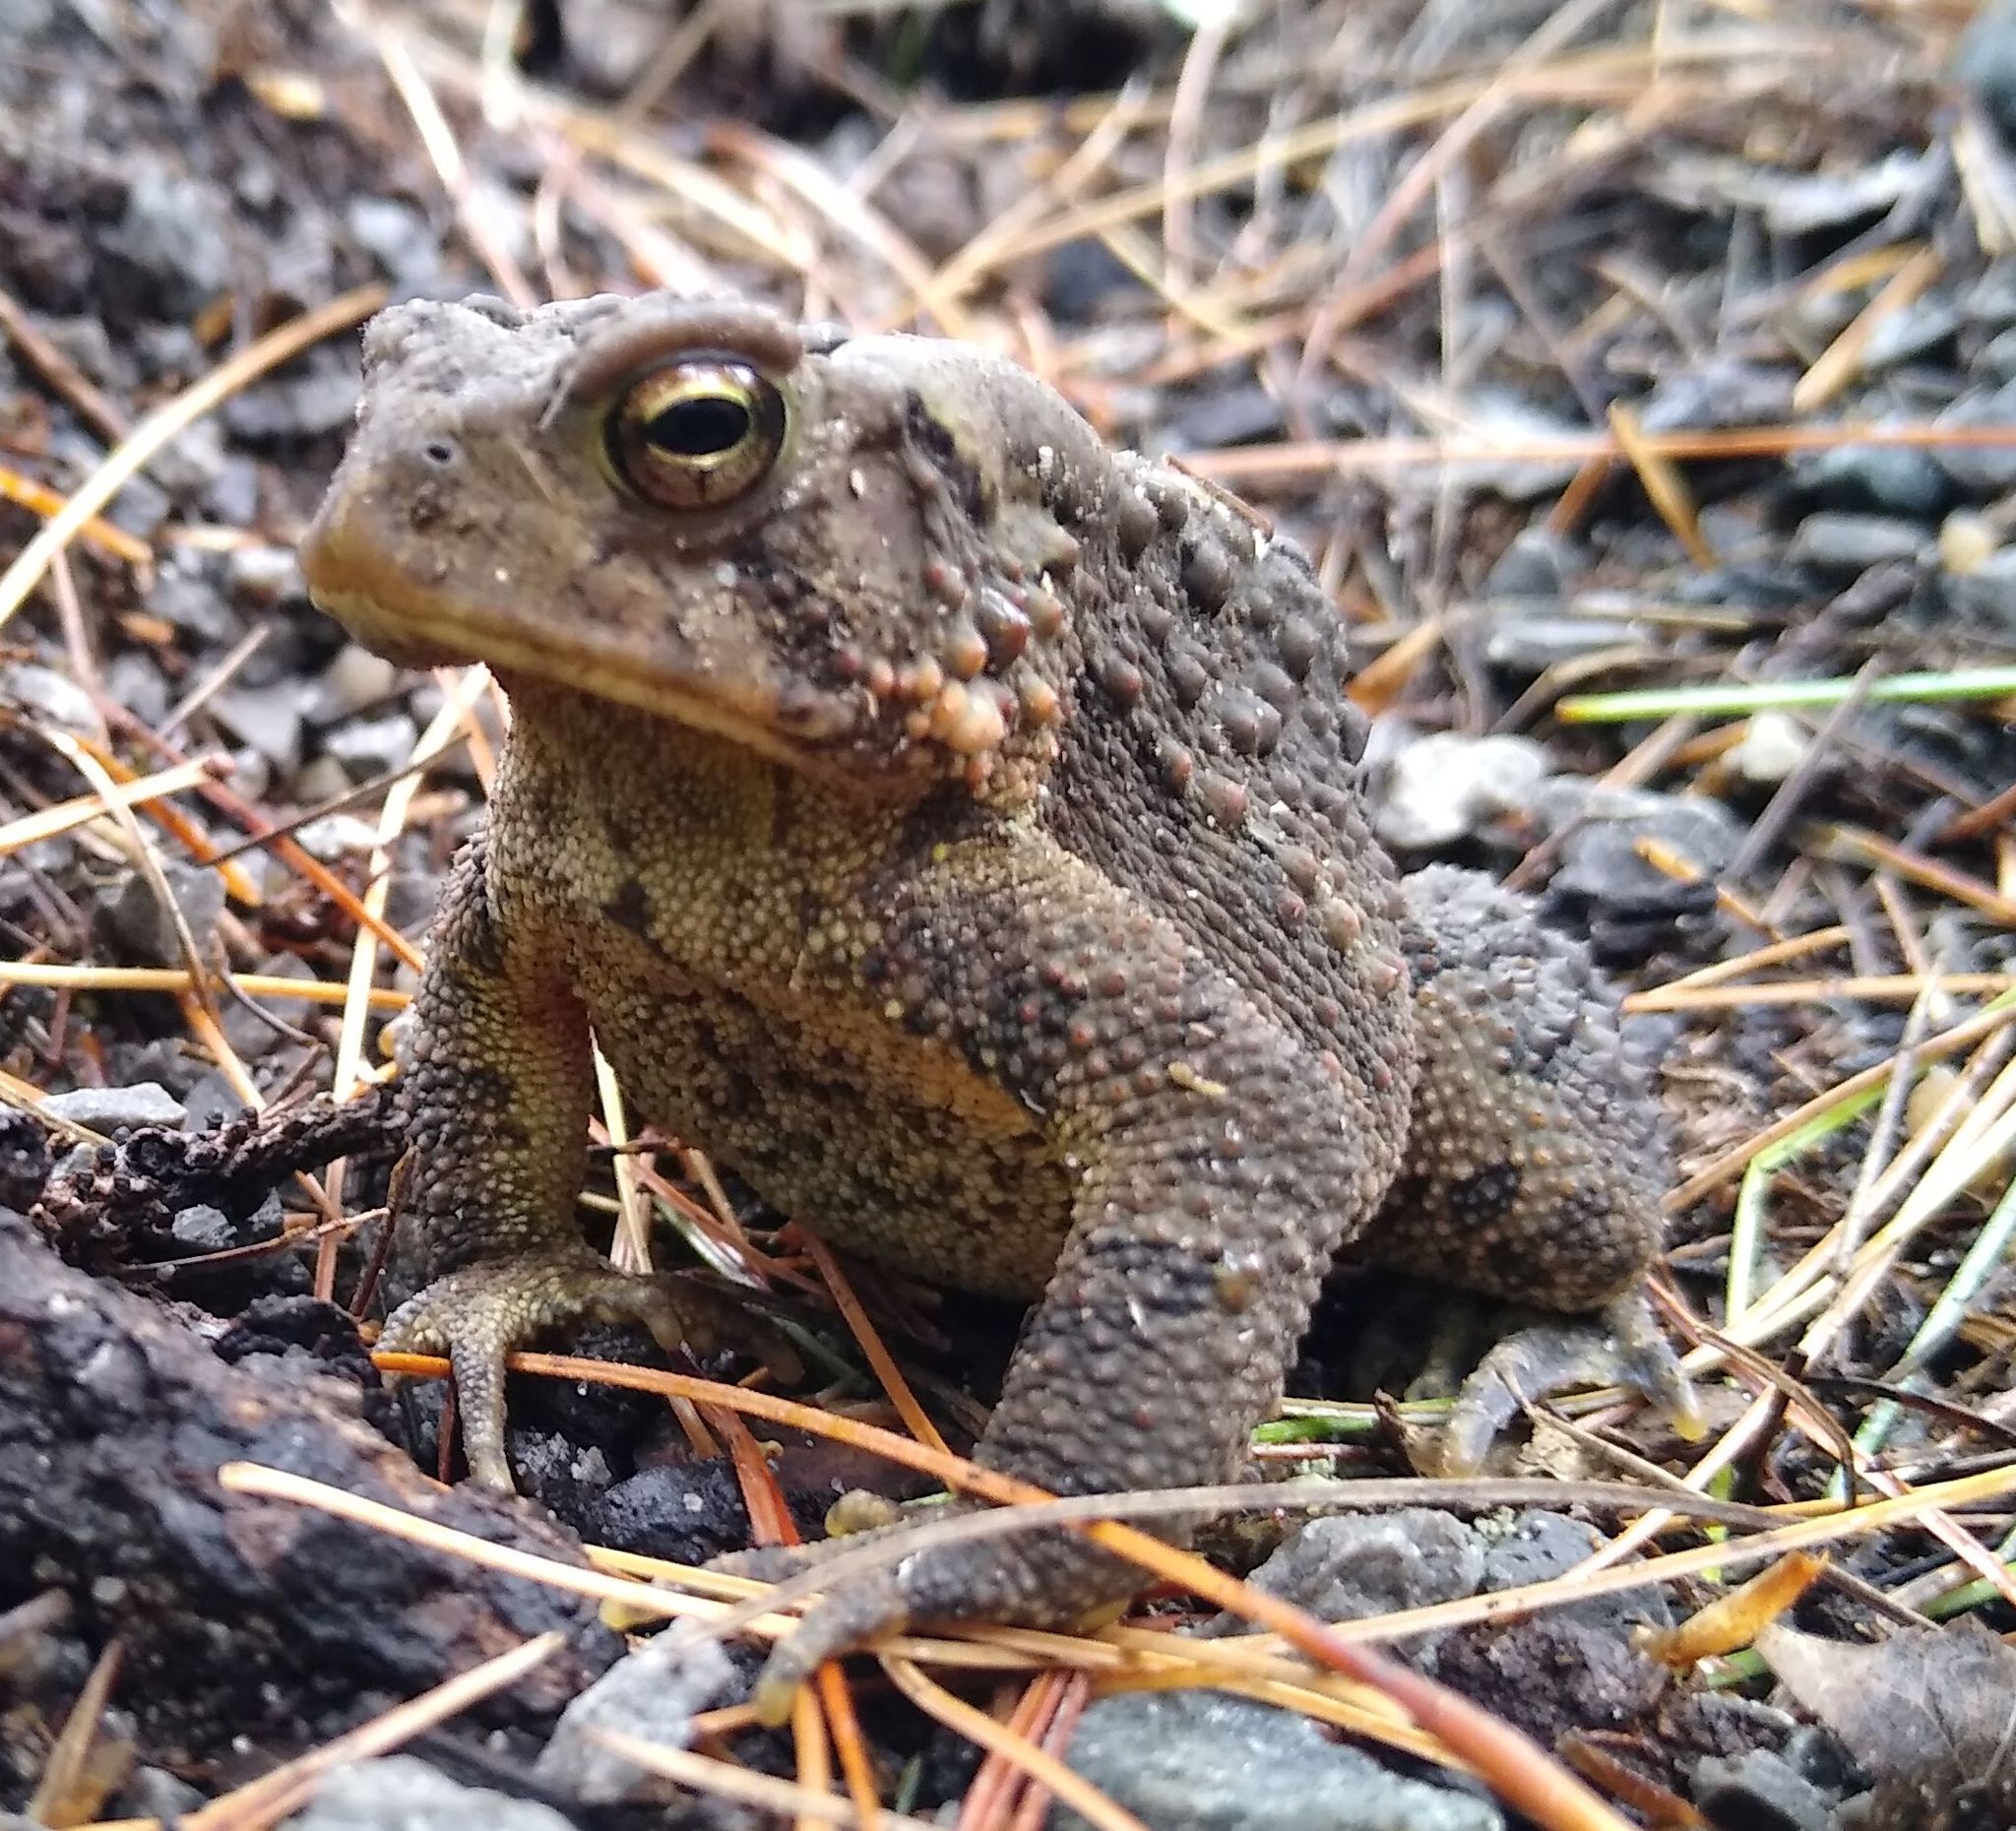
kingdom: Animalia
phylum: Chordata
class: Amphibia
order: Anura
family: Bufonidae
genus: Anaxyrus
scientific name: Anaxyrus americanus
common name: American toad
